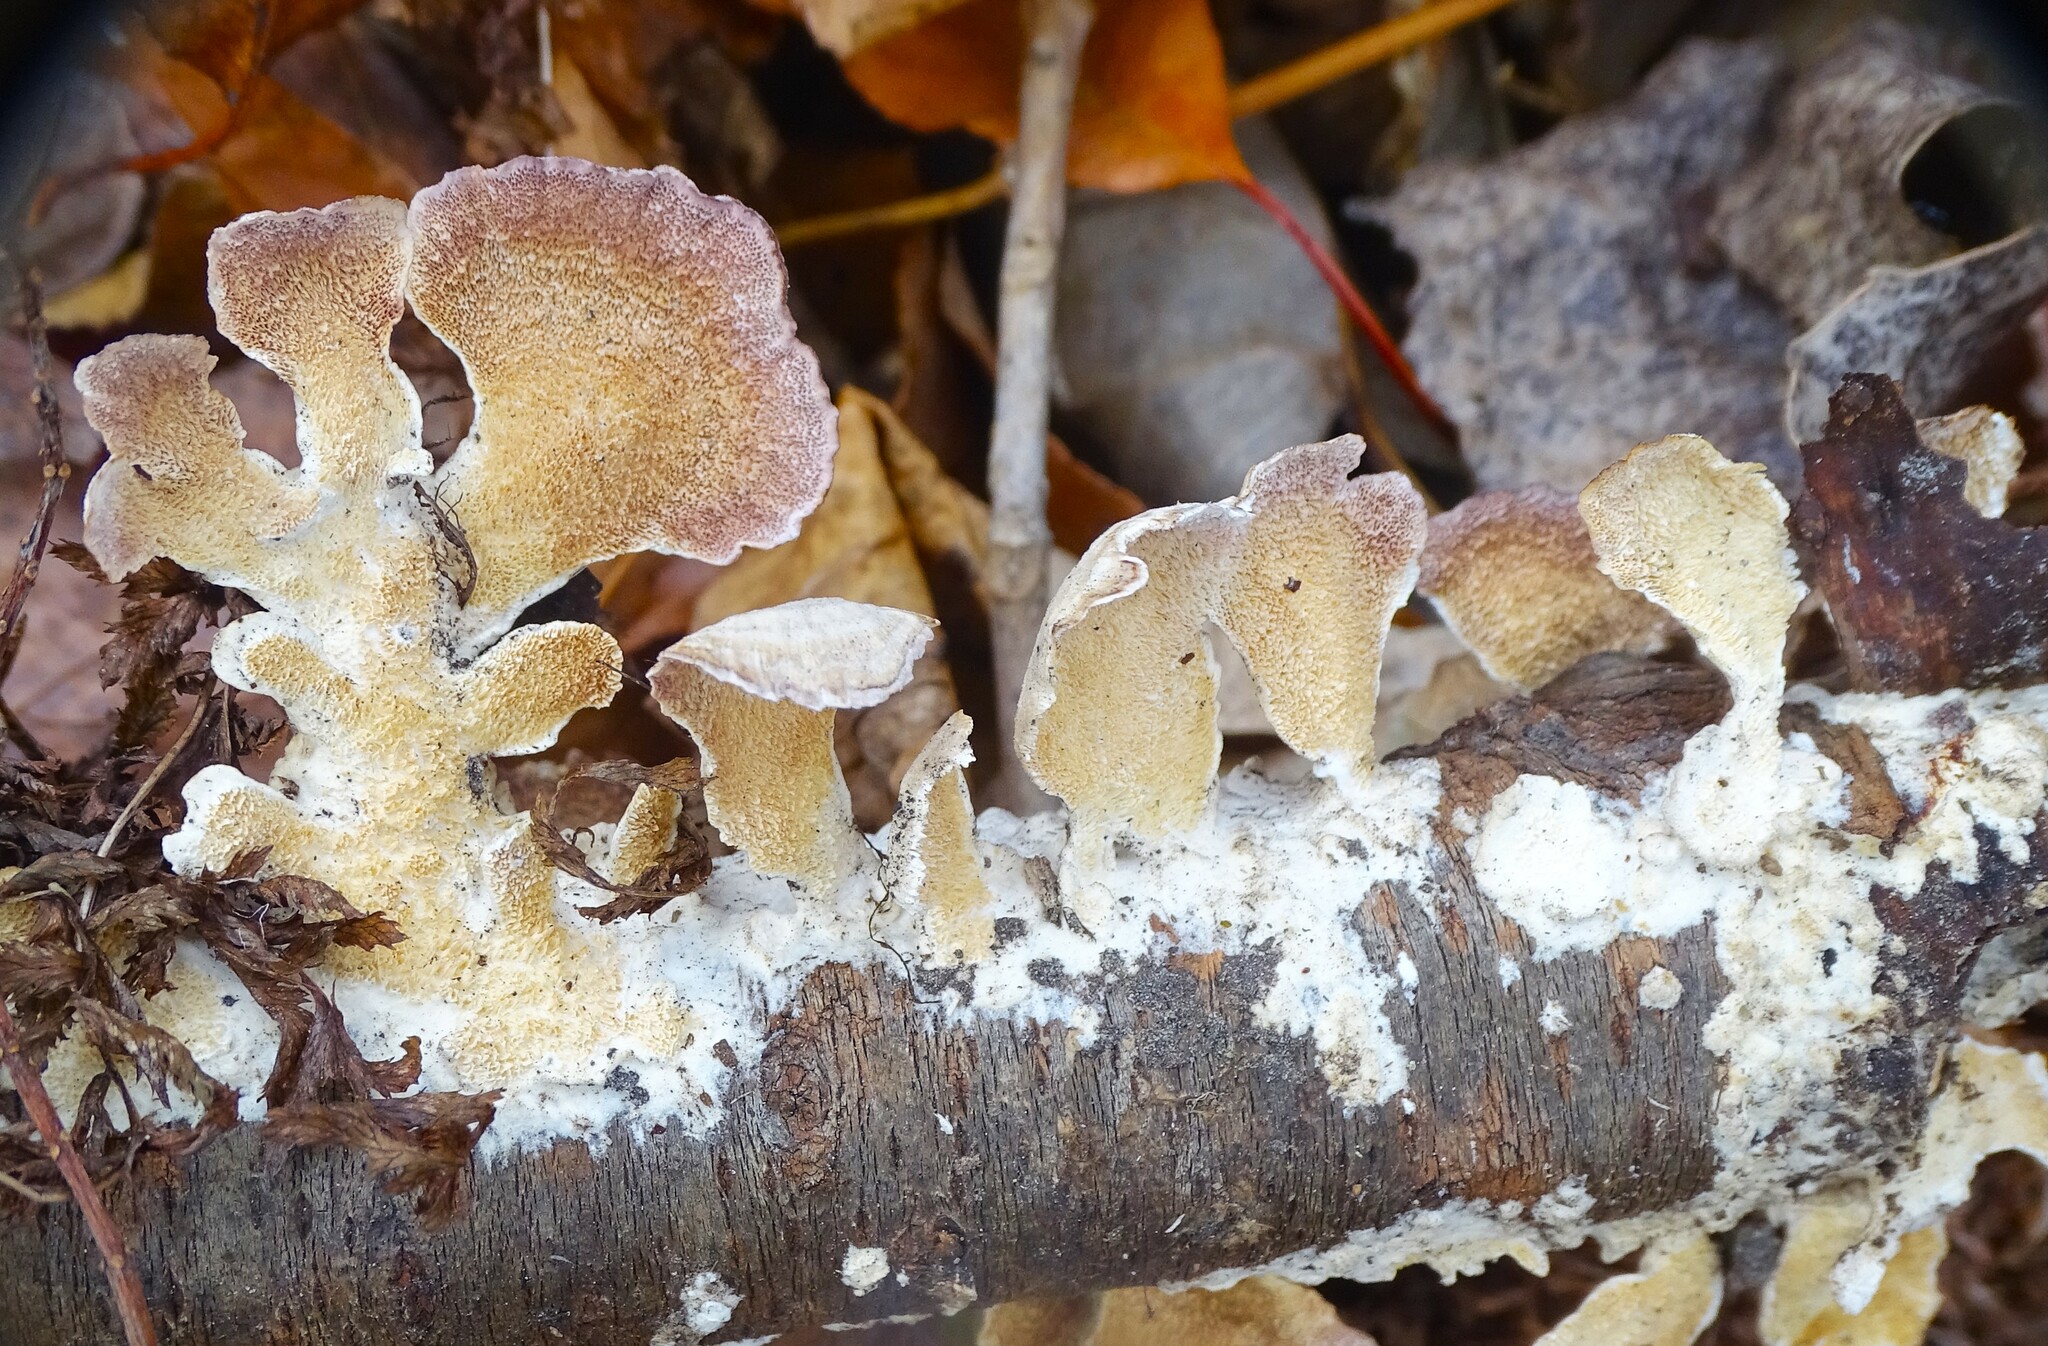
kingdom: Fungi
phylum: Basidiomycota
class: Agaricomycetes
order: Hymenochaetales
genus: Trichaptum
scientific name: Trichaptum biforme
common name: Violet-toothed polypore
